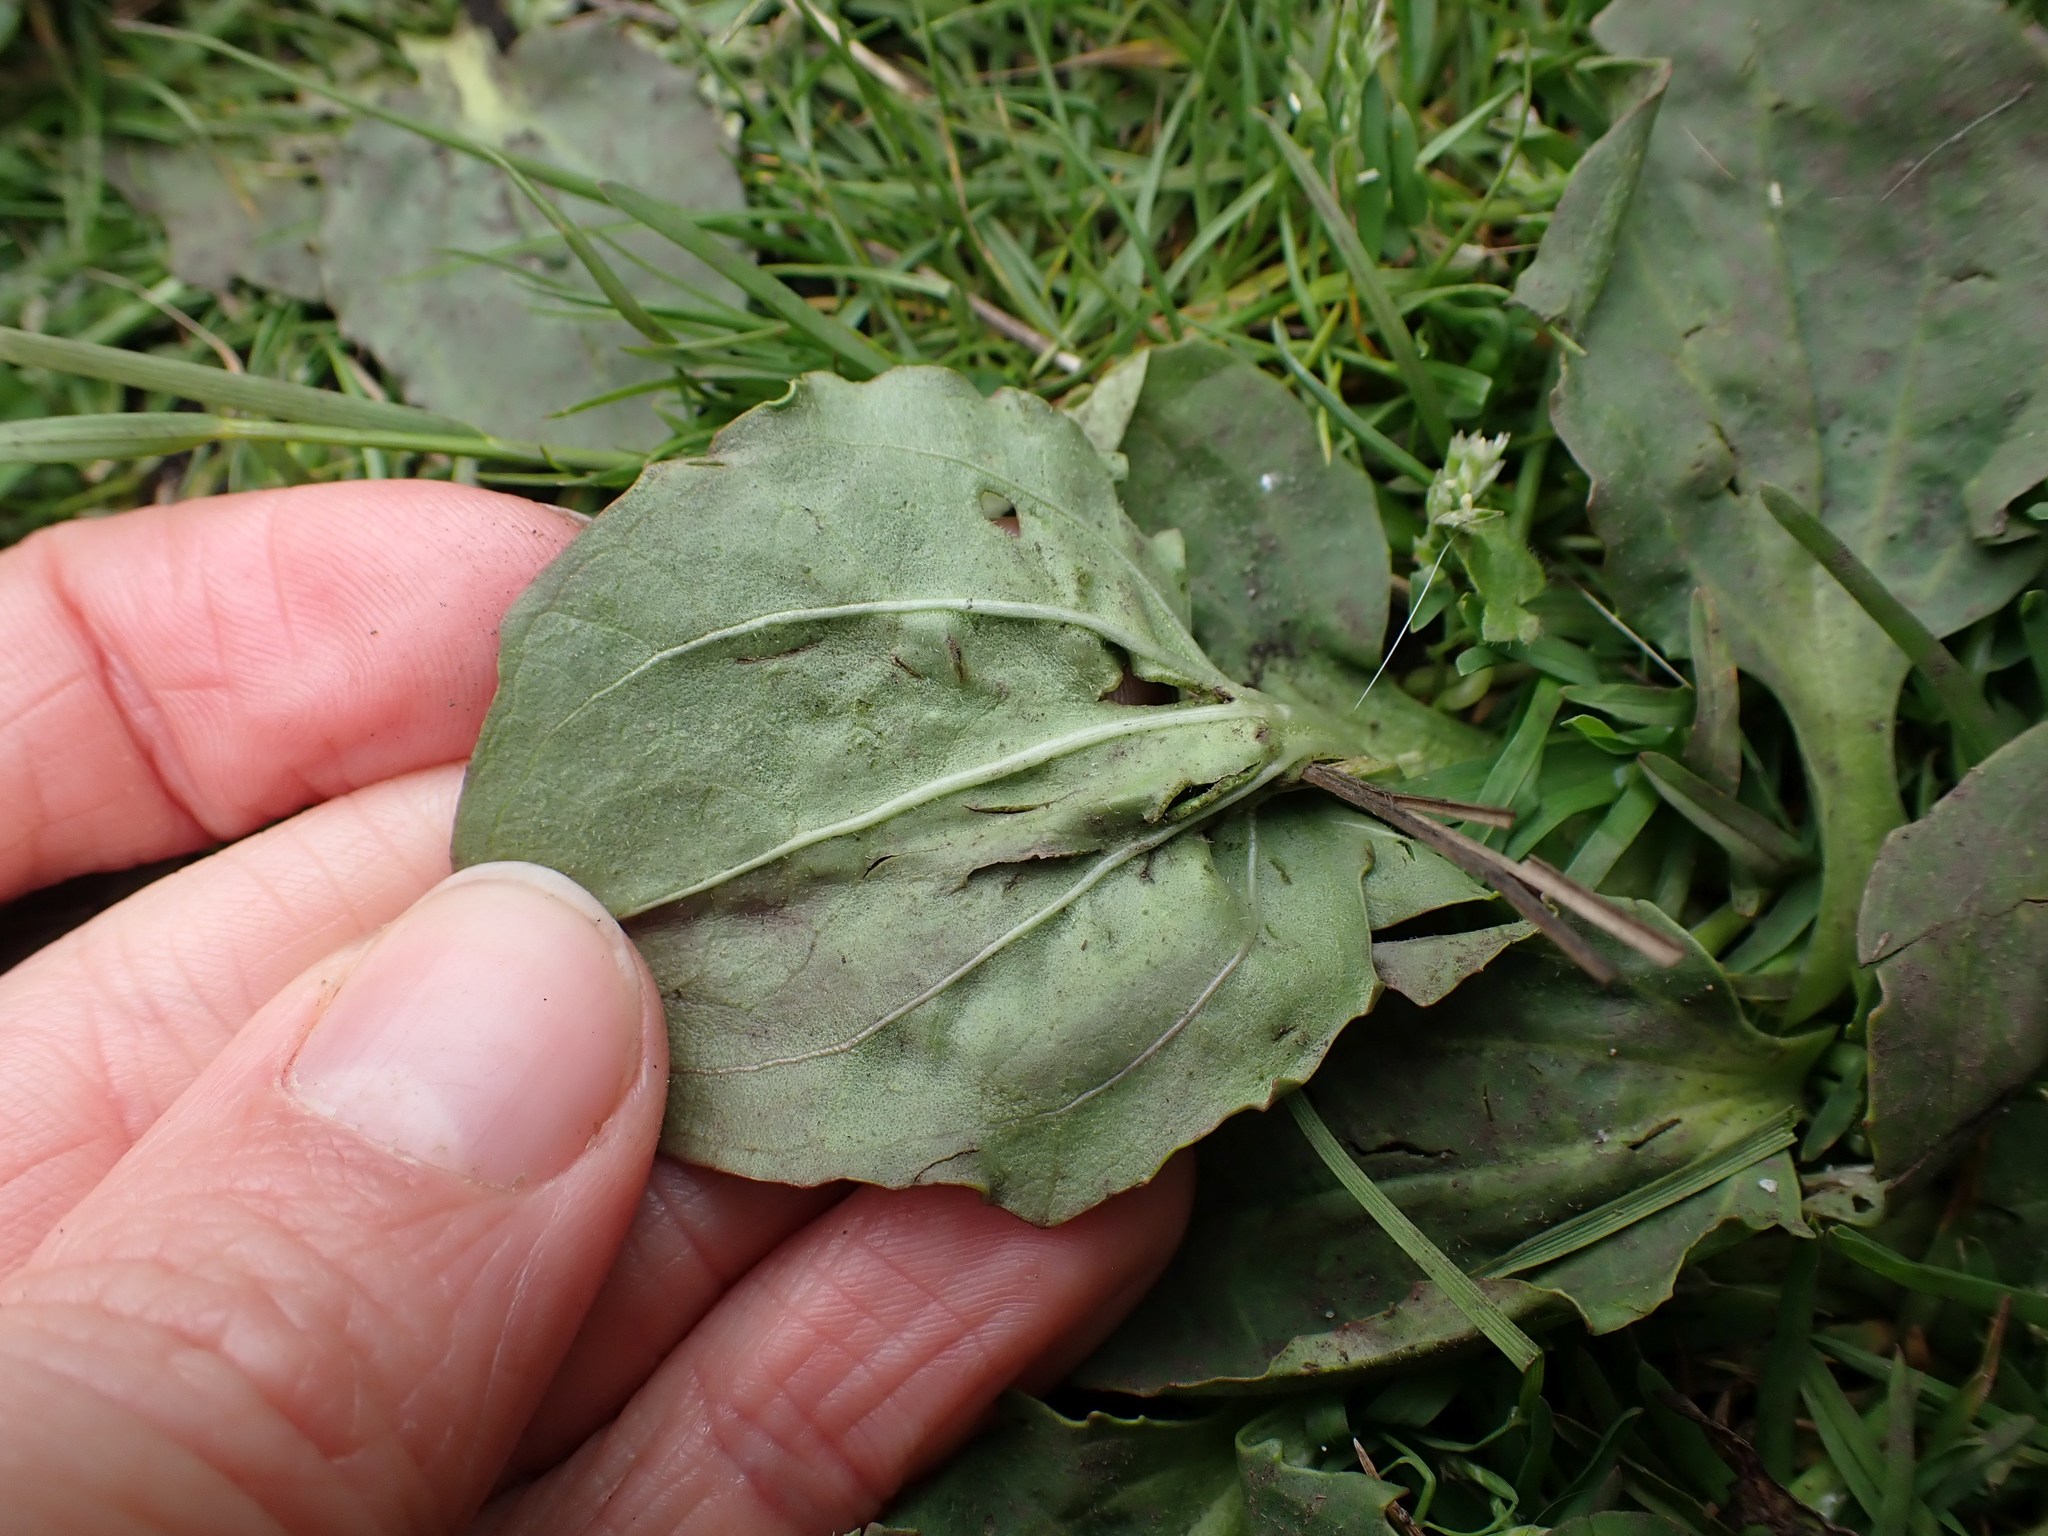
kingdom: Plantae
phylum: Tracheophyta
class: Magnoliopsida
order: Lamiales
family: Plantaginaceae
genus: Plantago
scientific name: Plantago major
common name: Common plantain
